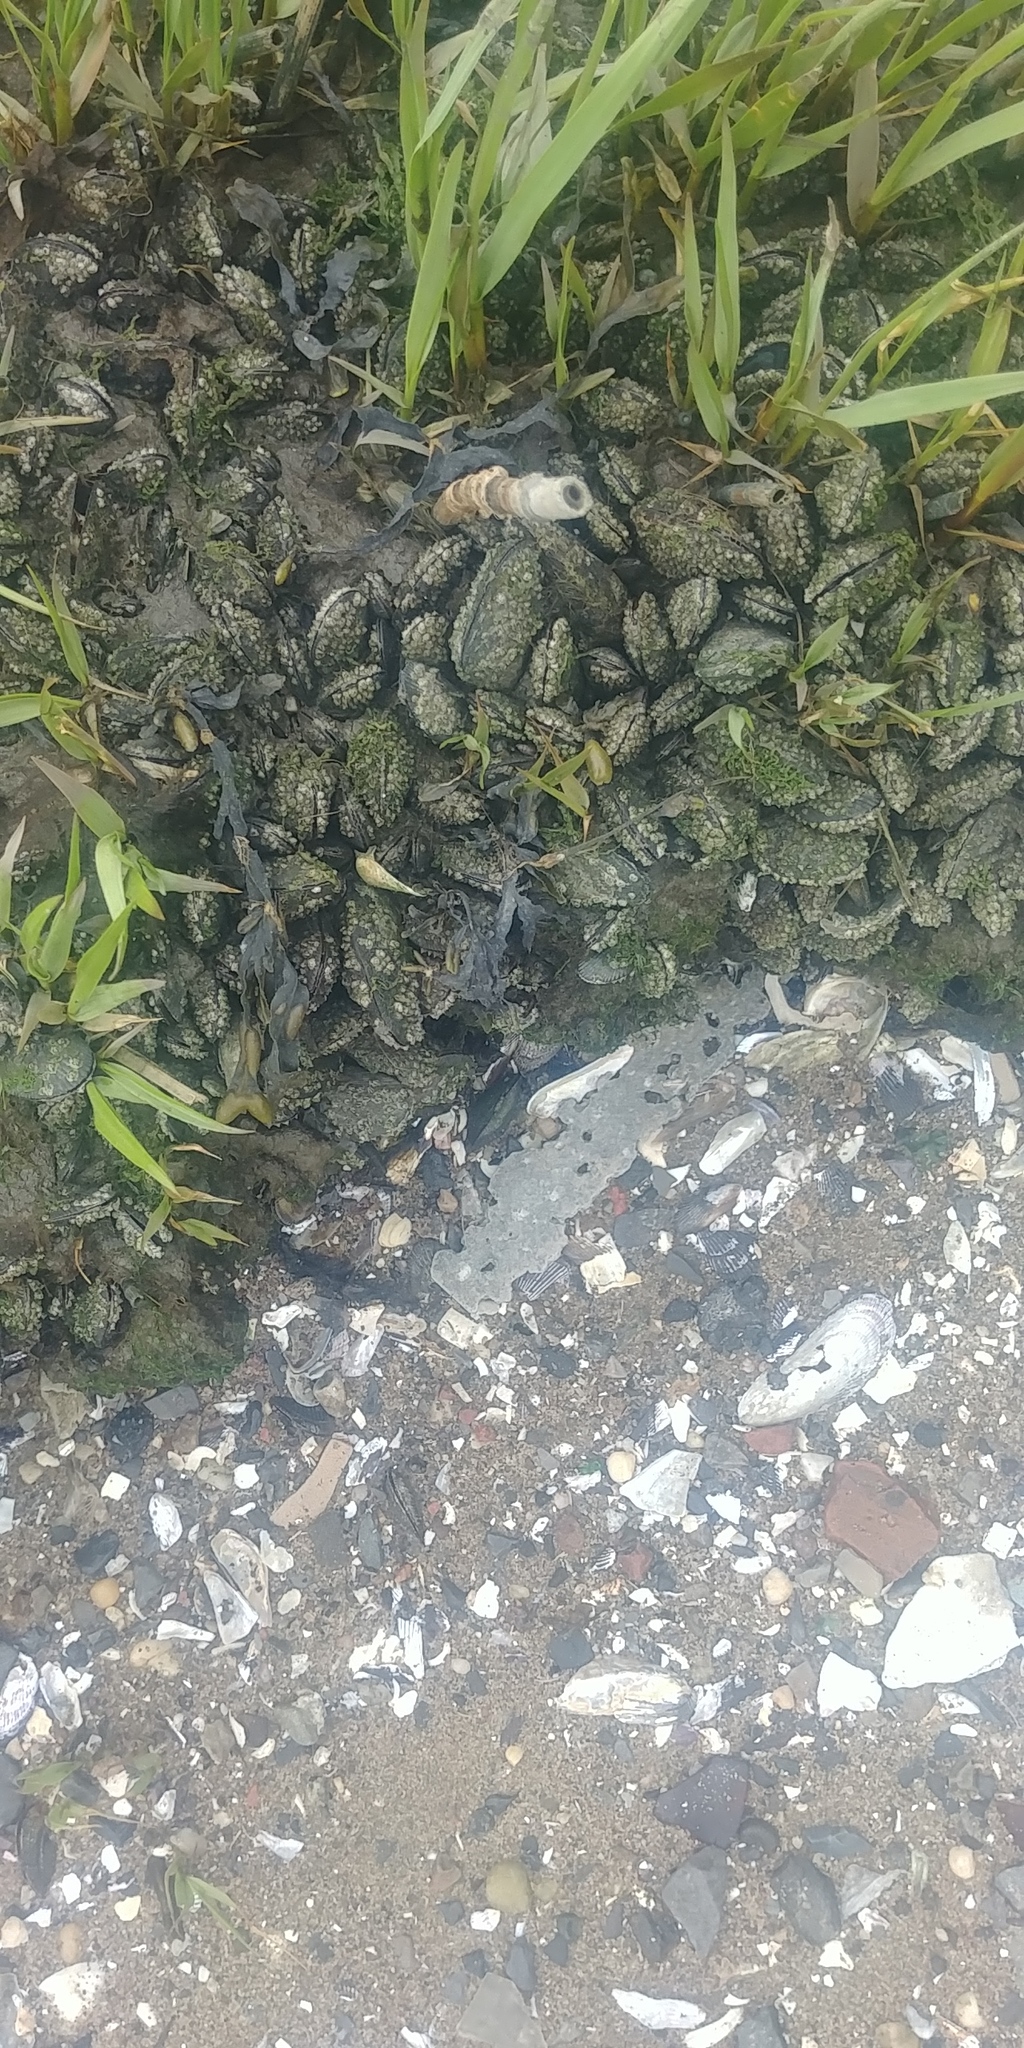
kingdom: Animalia
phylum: Mollusca
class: Bivalvia
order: Mytilida
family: Mytilidae
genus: Geukensia
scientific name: Geukensia demissa
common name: Ribbed mussel
